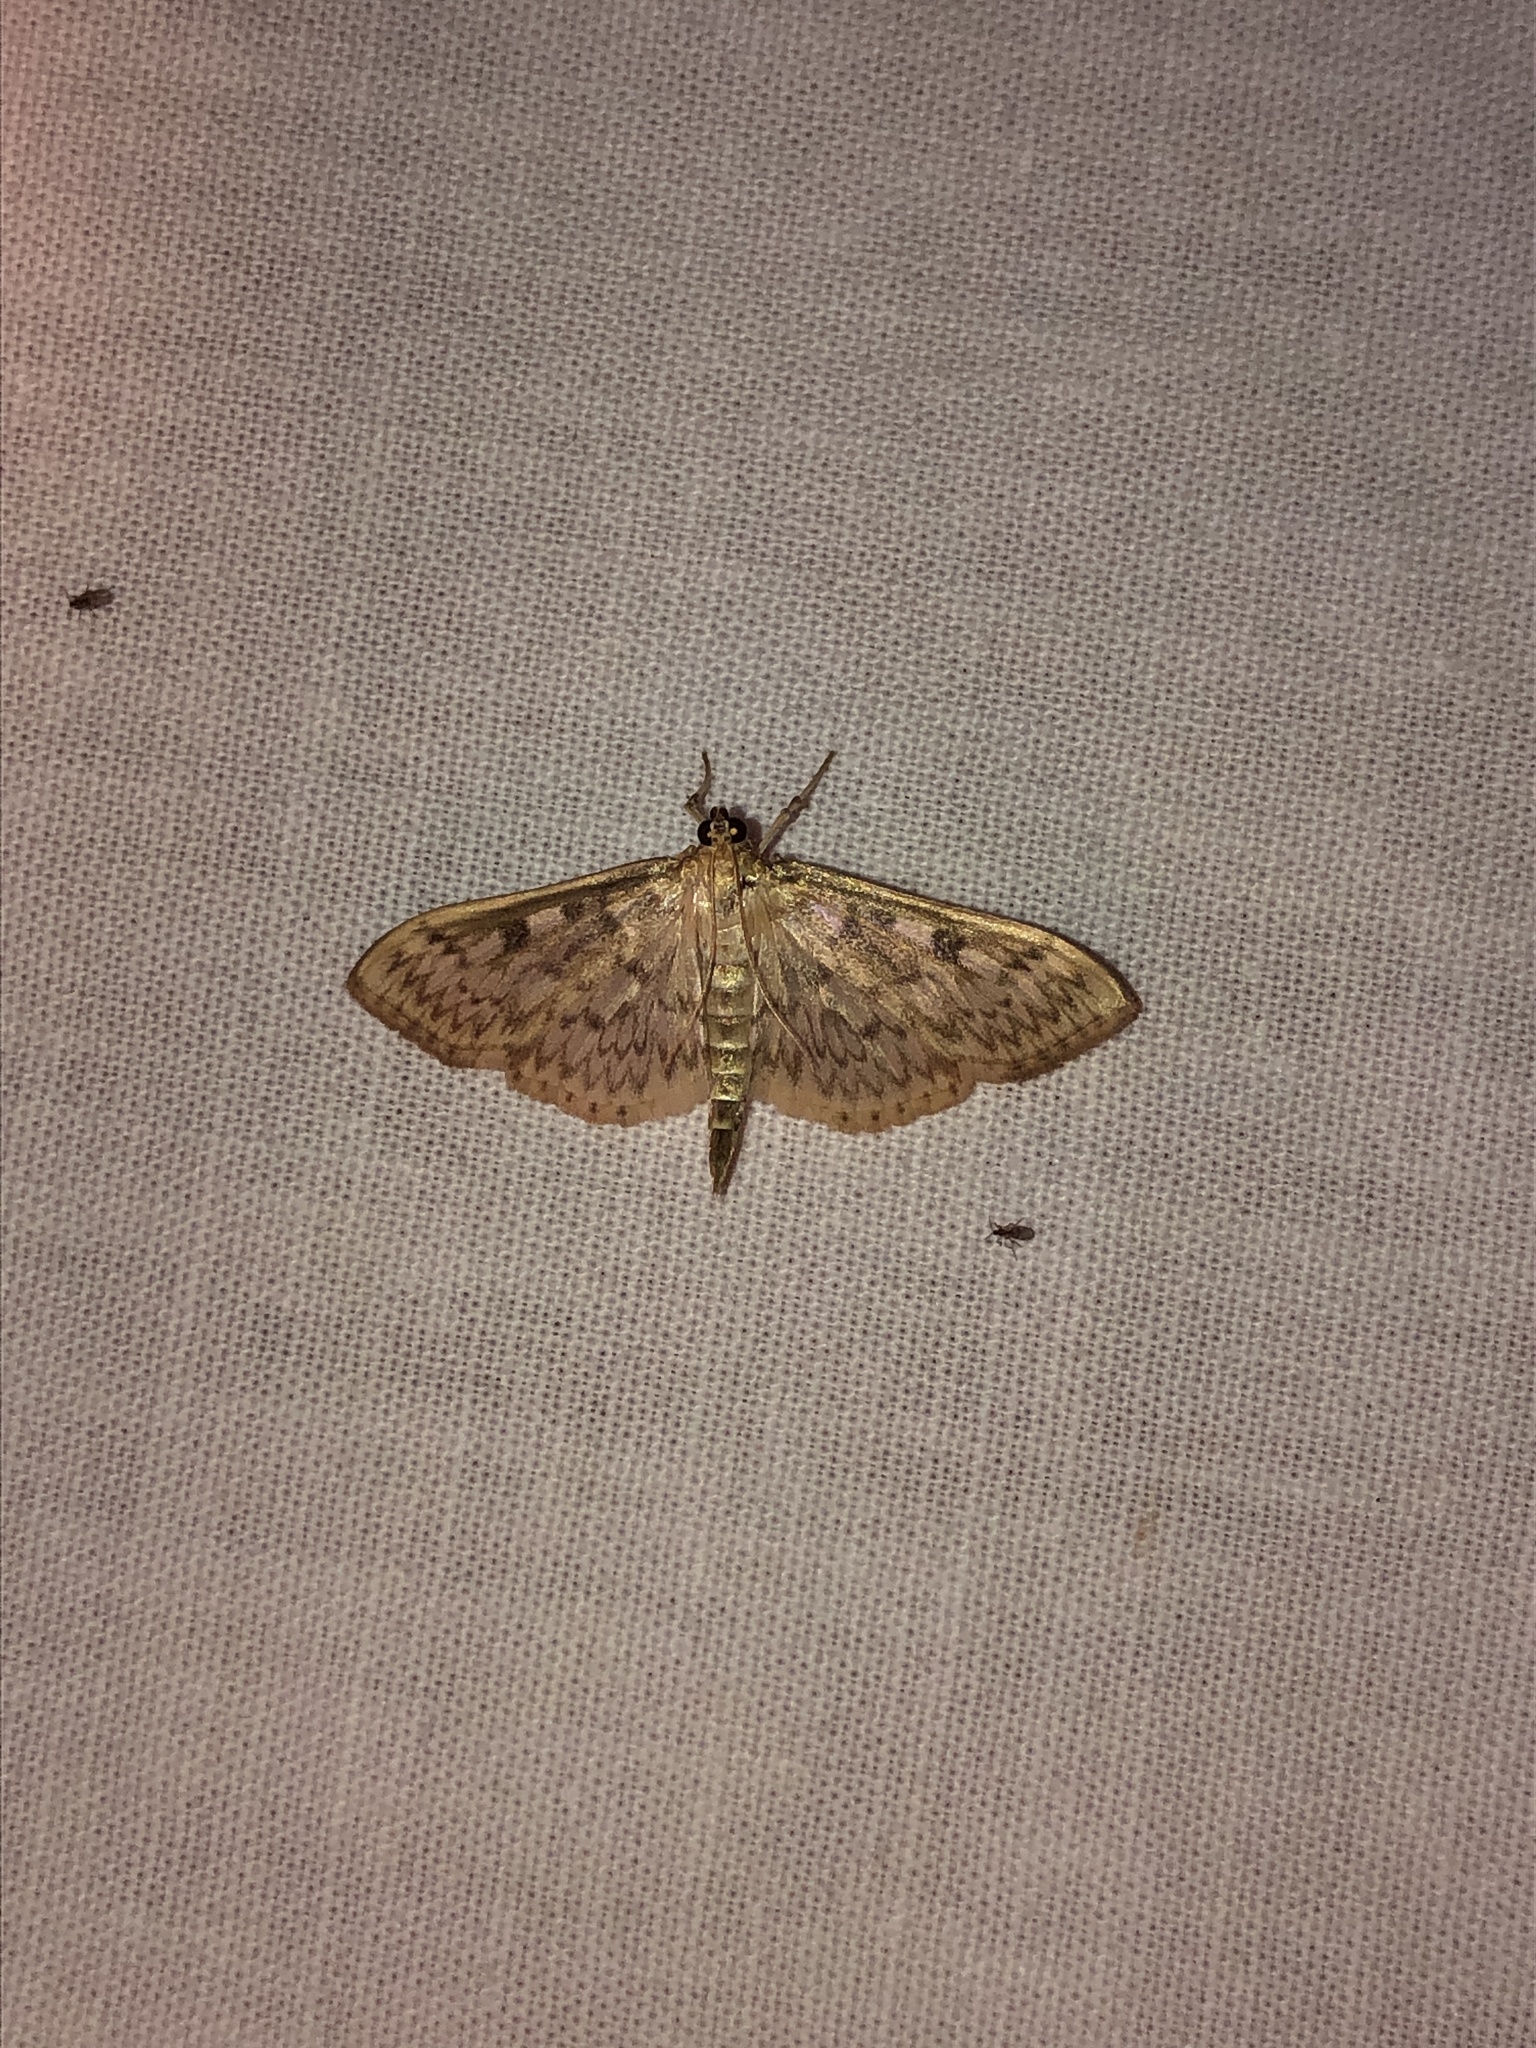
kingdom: Animalia
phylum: Arthropoda
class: Insecta
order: Lepidoptera
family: Crambidae
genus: Herpetogramma
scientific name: Herpetogramma aquilonalis
